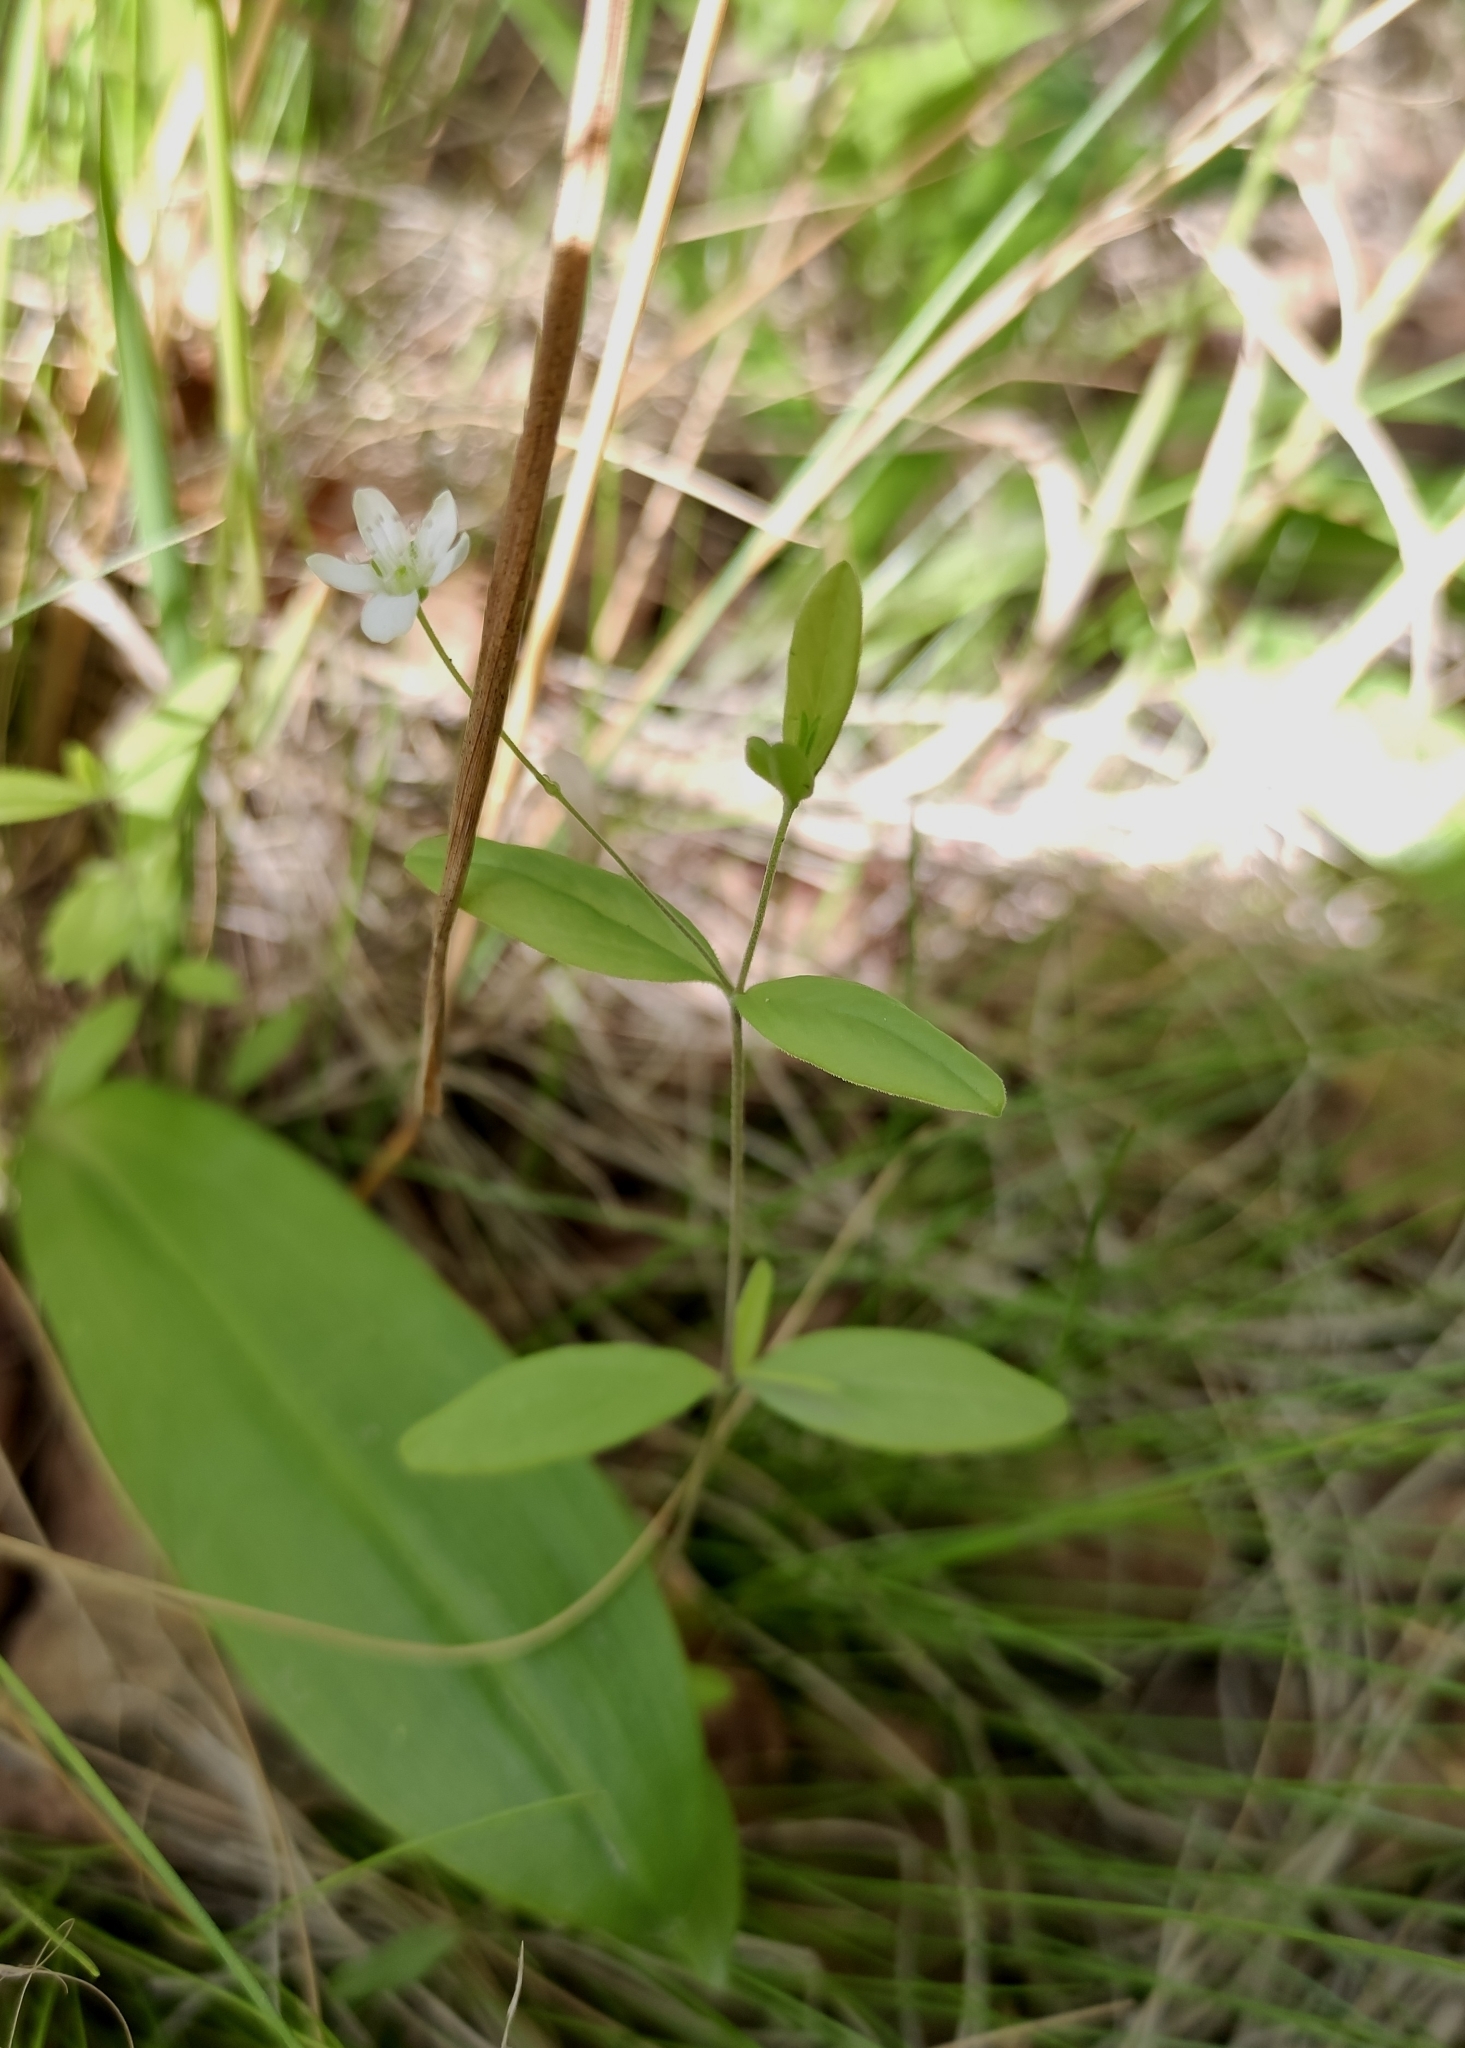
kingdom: Plantae
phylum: Tracheophyta
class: Magnoliopsida
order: Caryophyllales
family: Caryophyllaceae
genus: Moehringia
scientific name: Moehringia lateriflora
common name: Blunt-leaved sandwort
